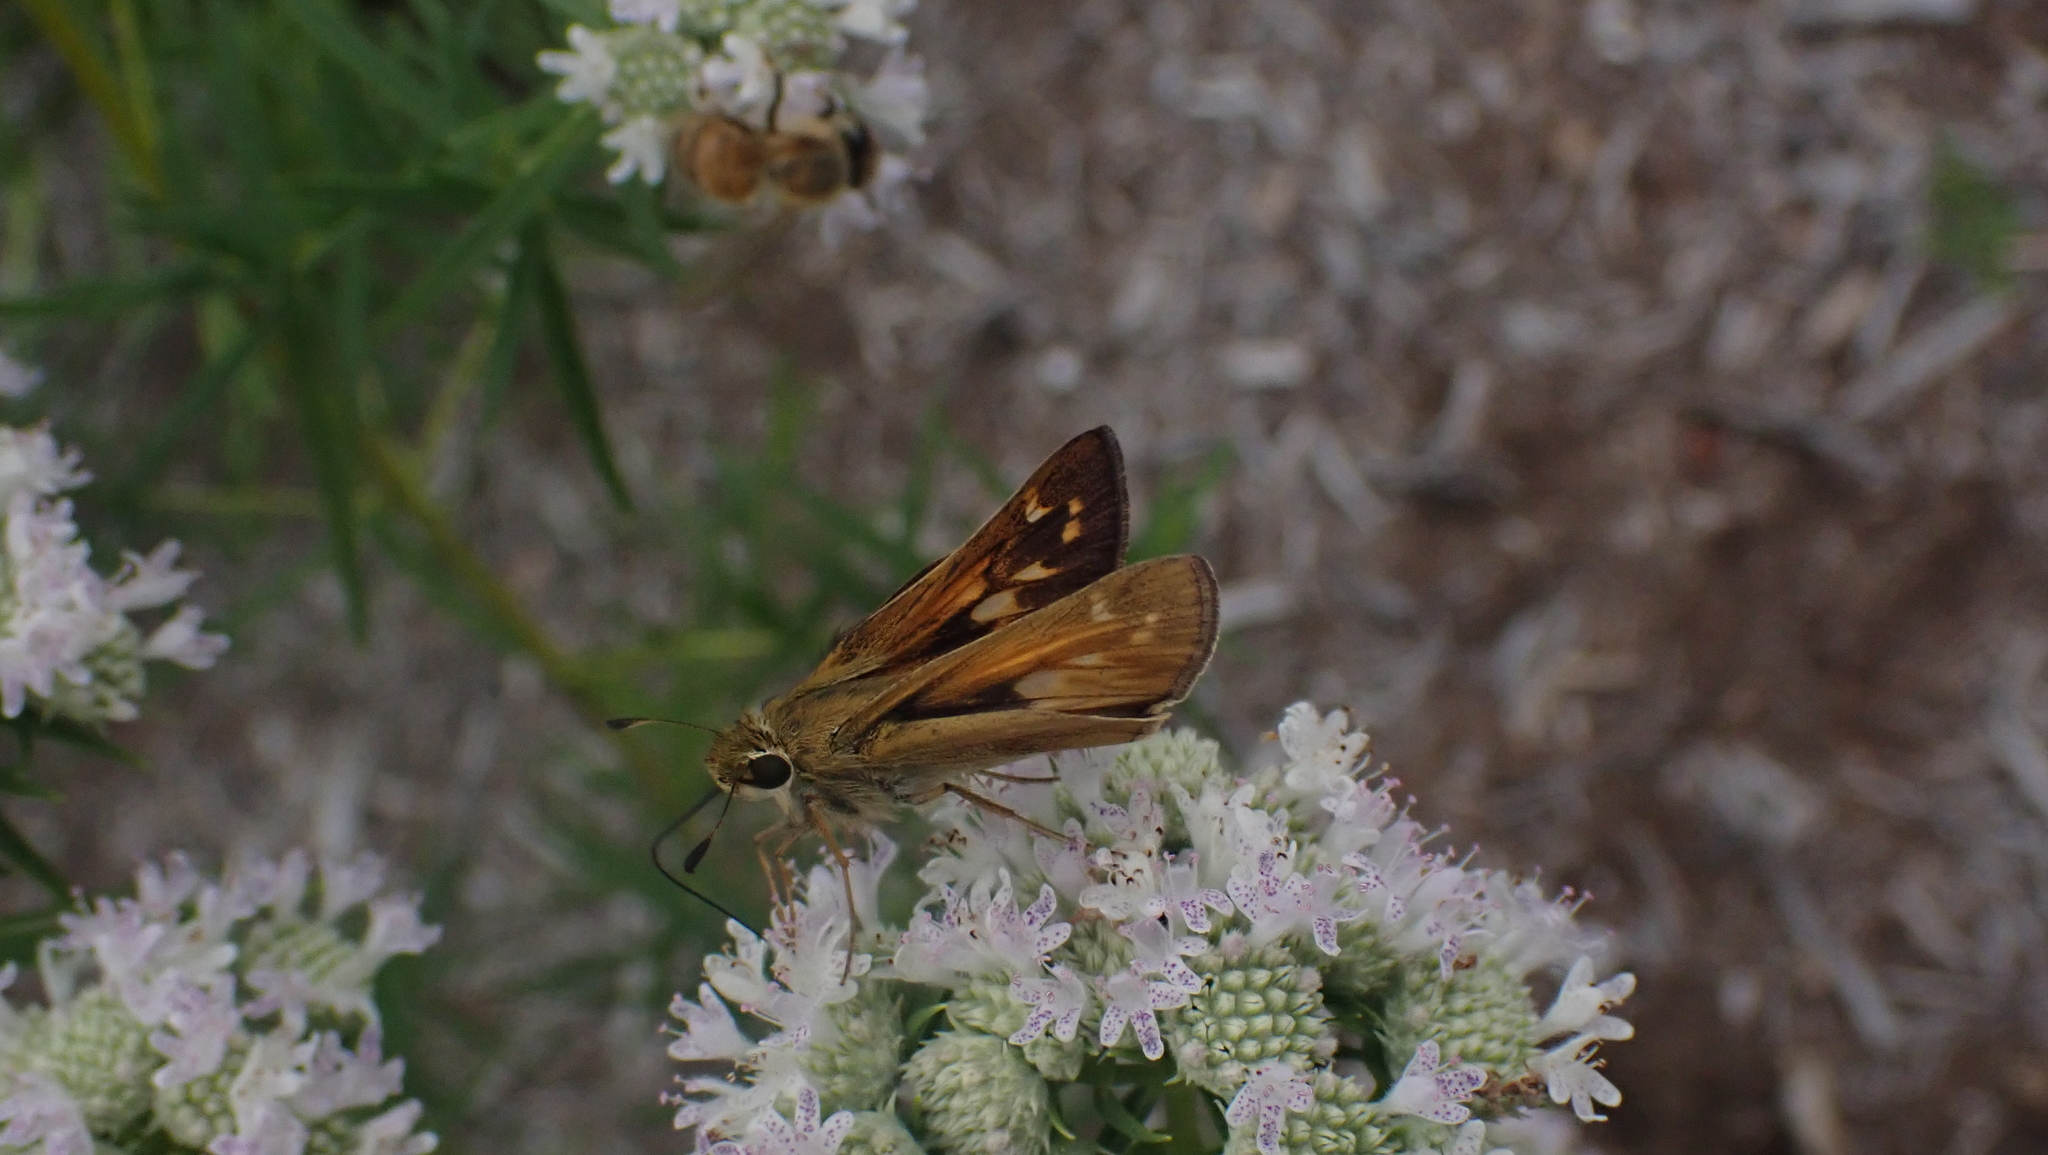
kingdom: Animalia
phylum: Arthropoda
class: Insecta
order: Lepidoptera
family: Hesperiidae
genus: Atalopedes
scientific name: Atalopedes
